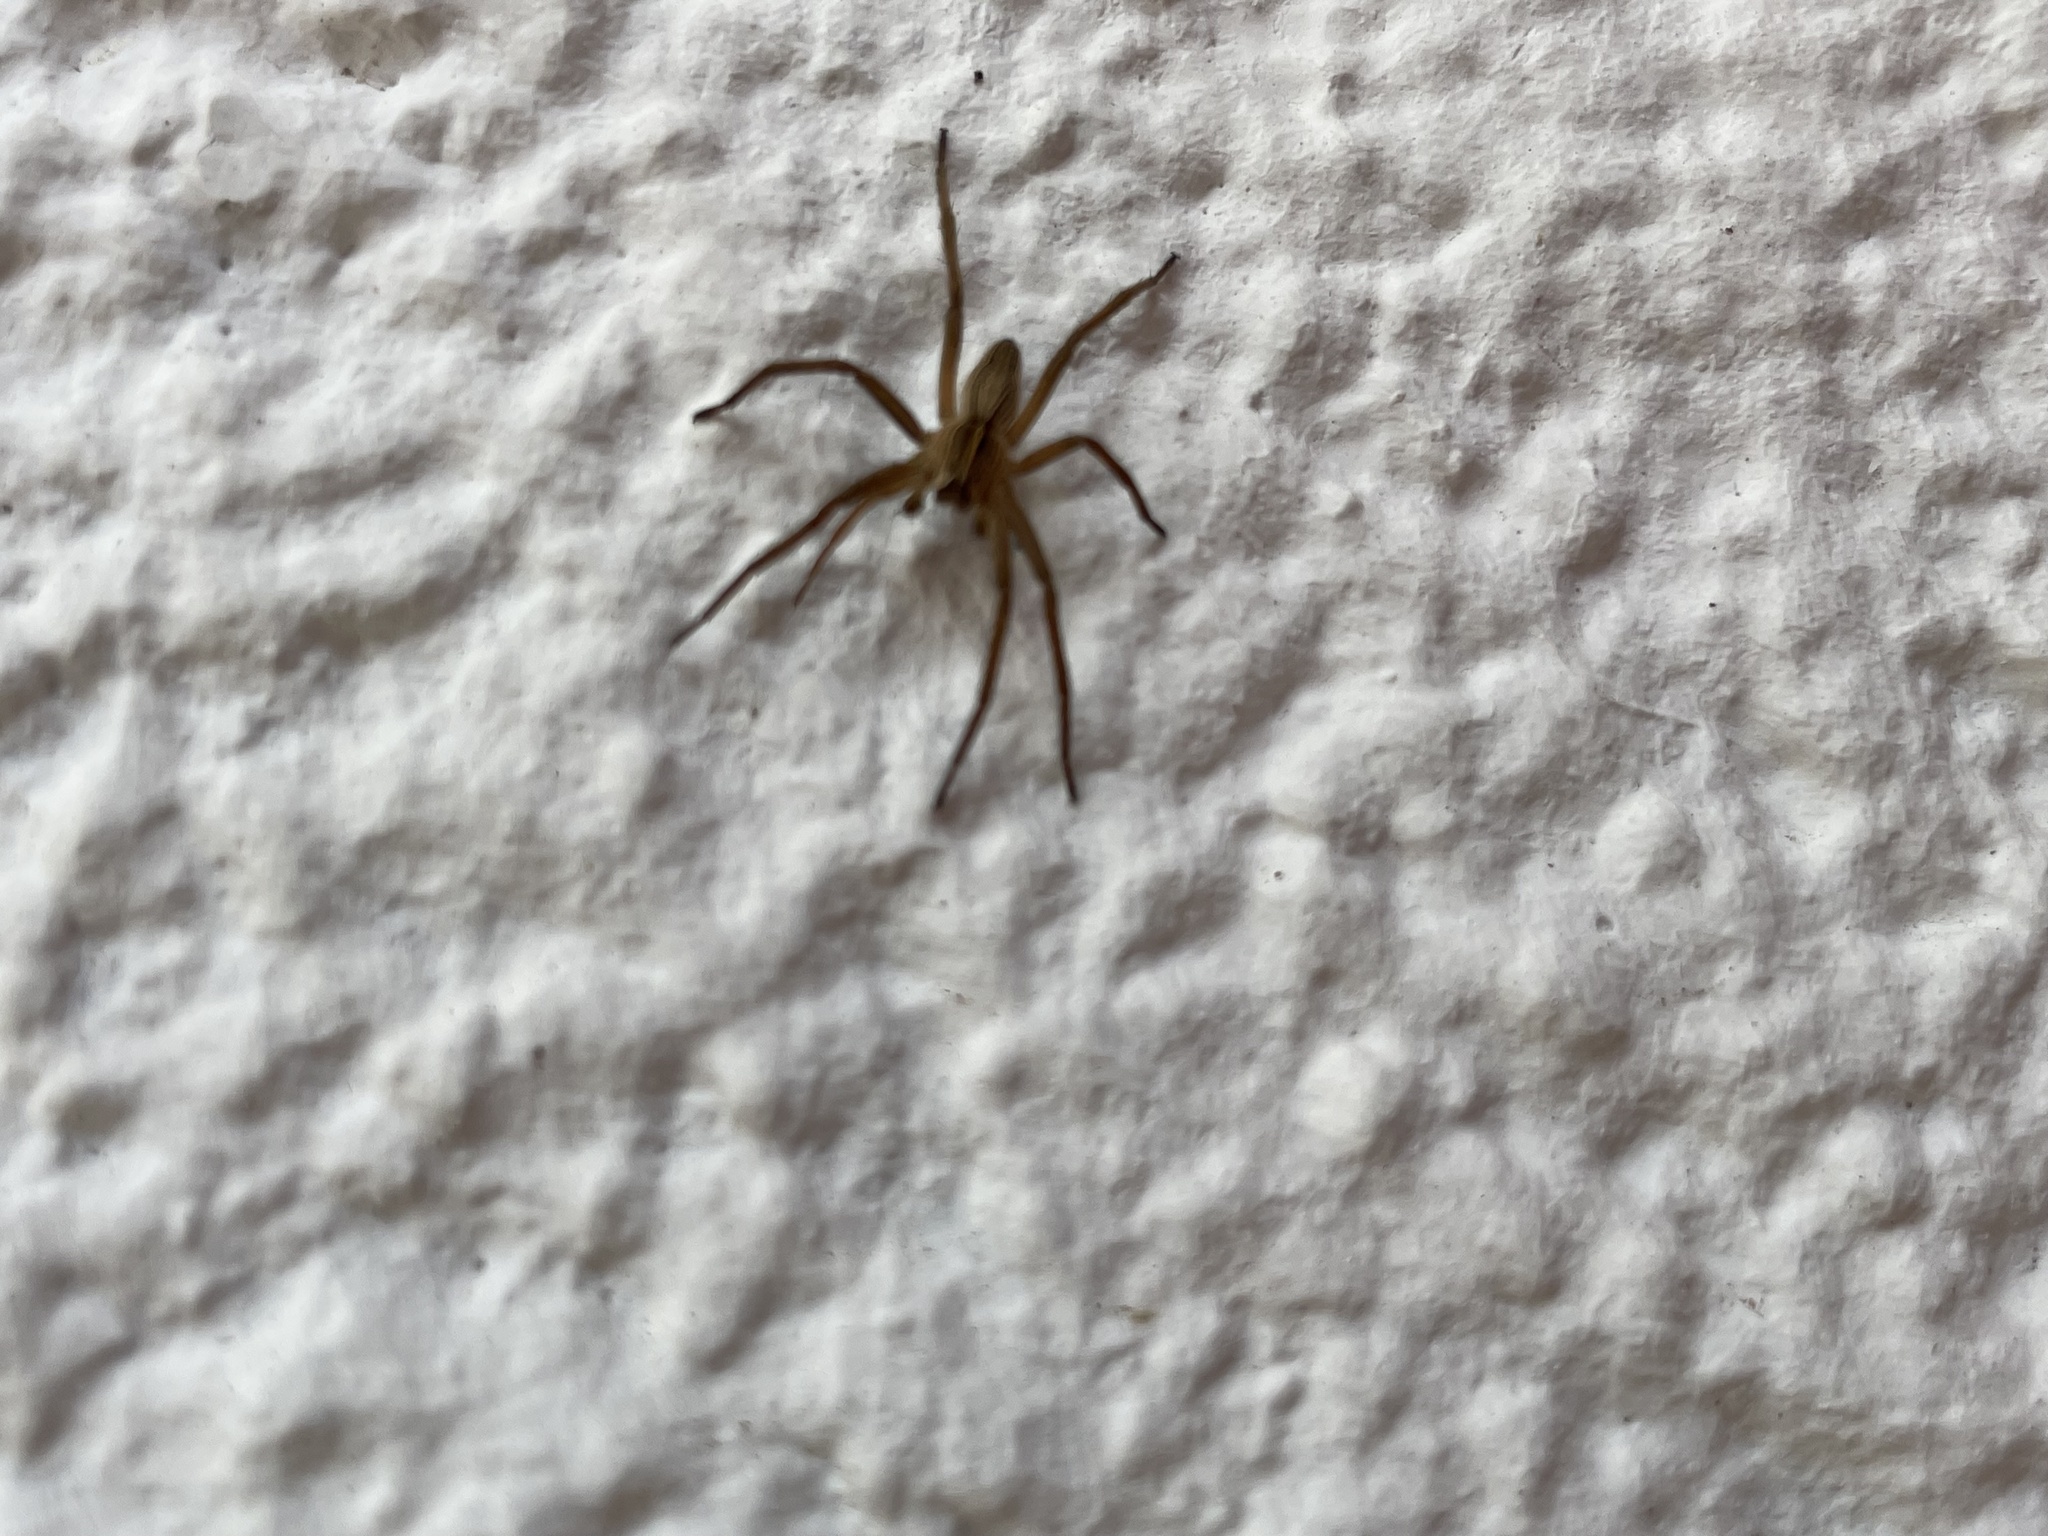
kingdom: Animalia
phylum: Arthropoda
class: Arachnida
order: Araneae
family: Pisauridae
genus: Pisaura
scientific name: Pisaura mirabilis
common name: Tent spider
